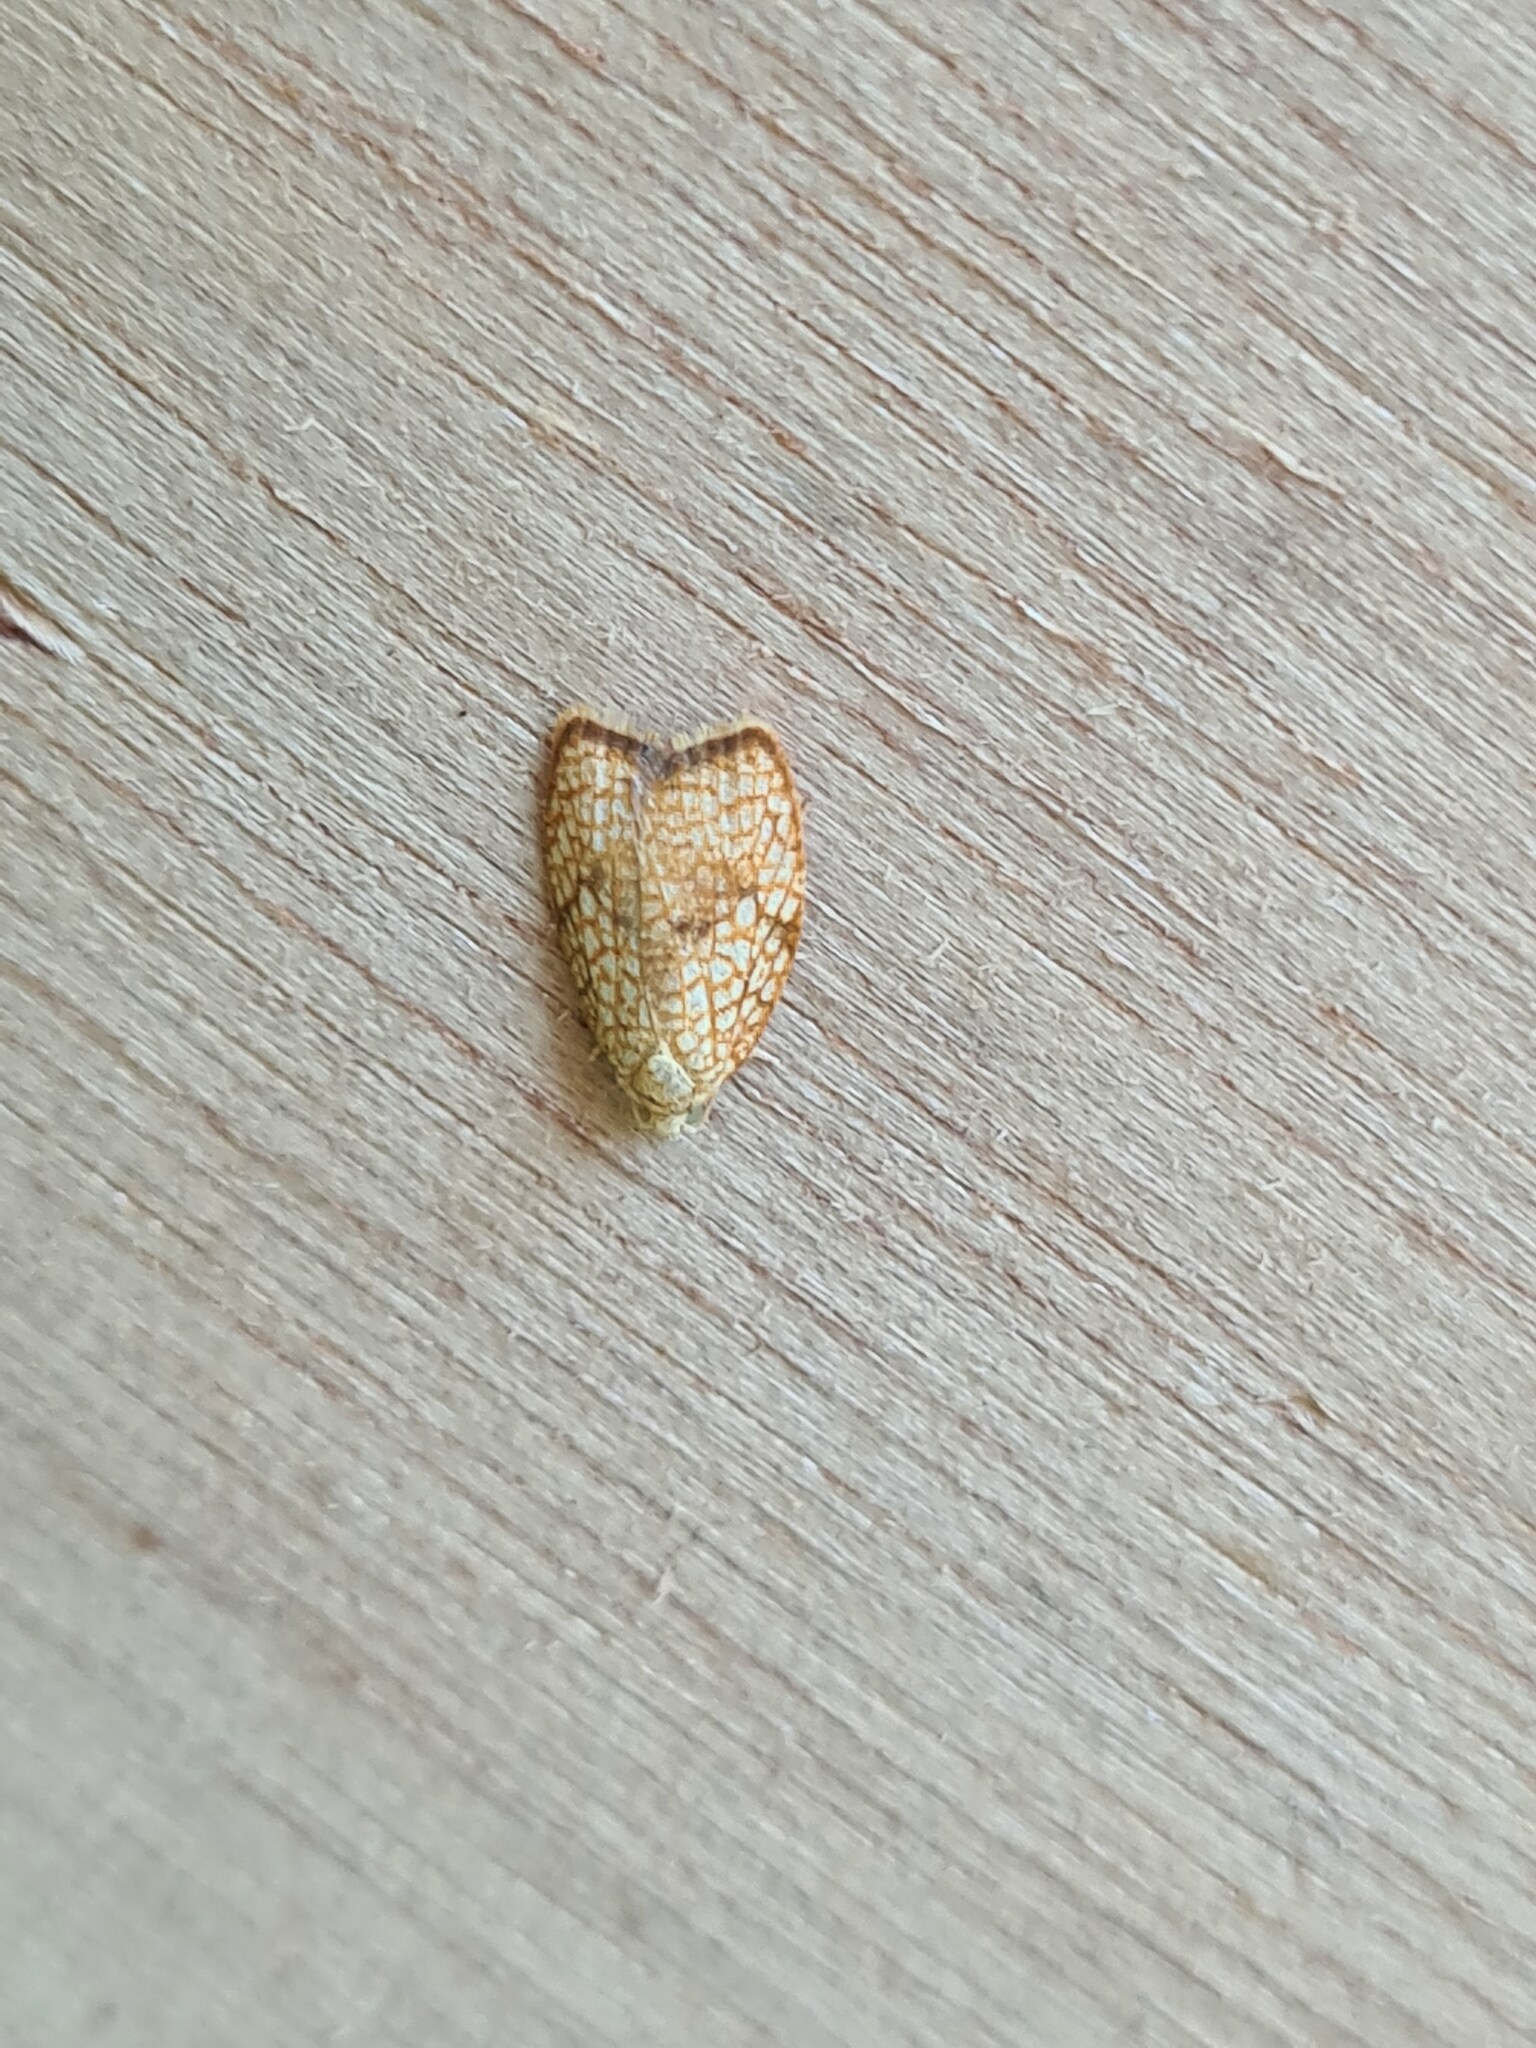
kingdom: Animalia
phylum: Arthropoda
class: Insecta
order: Lepidoptera
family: Tortricidae
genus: Acleris
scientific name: Acleris forsskaleana
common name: Maple button
